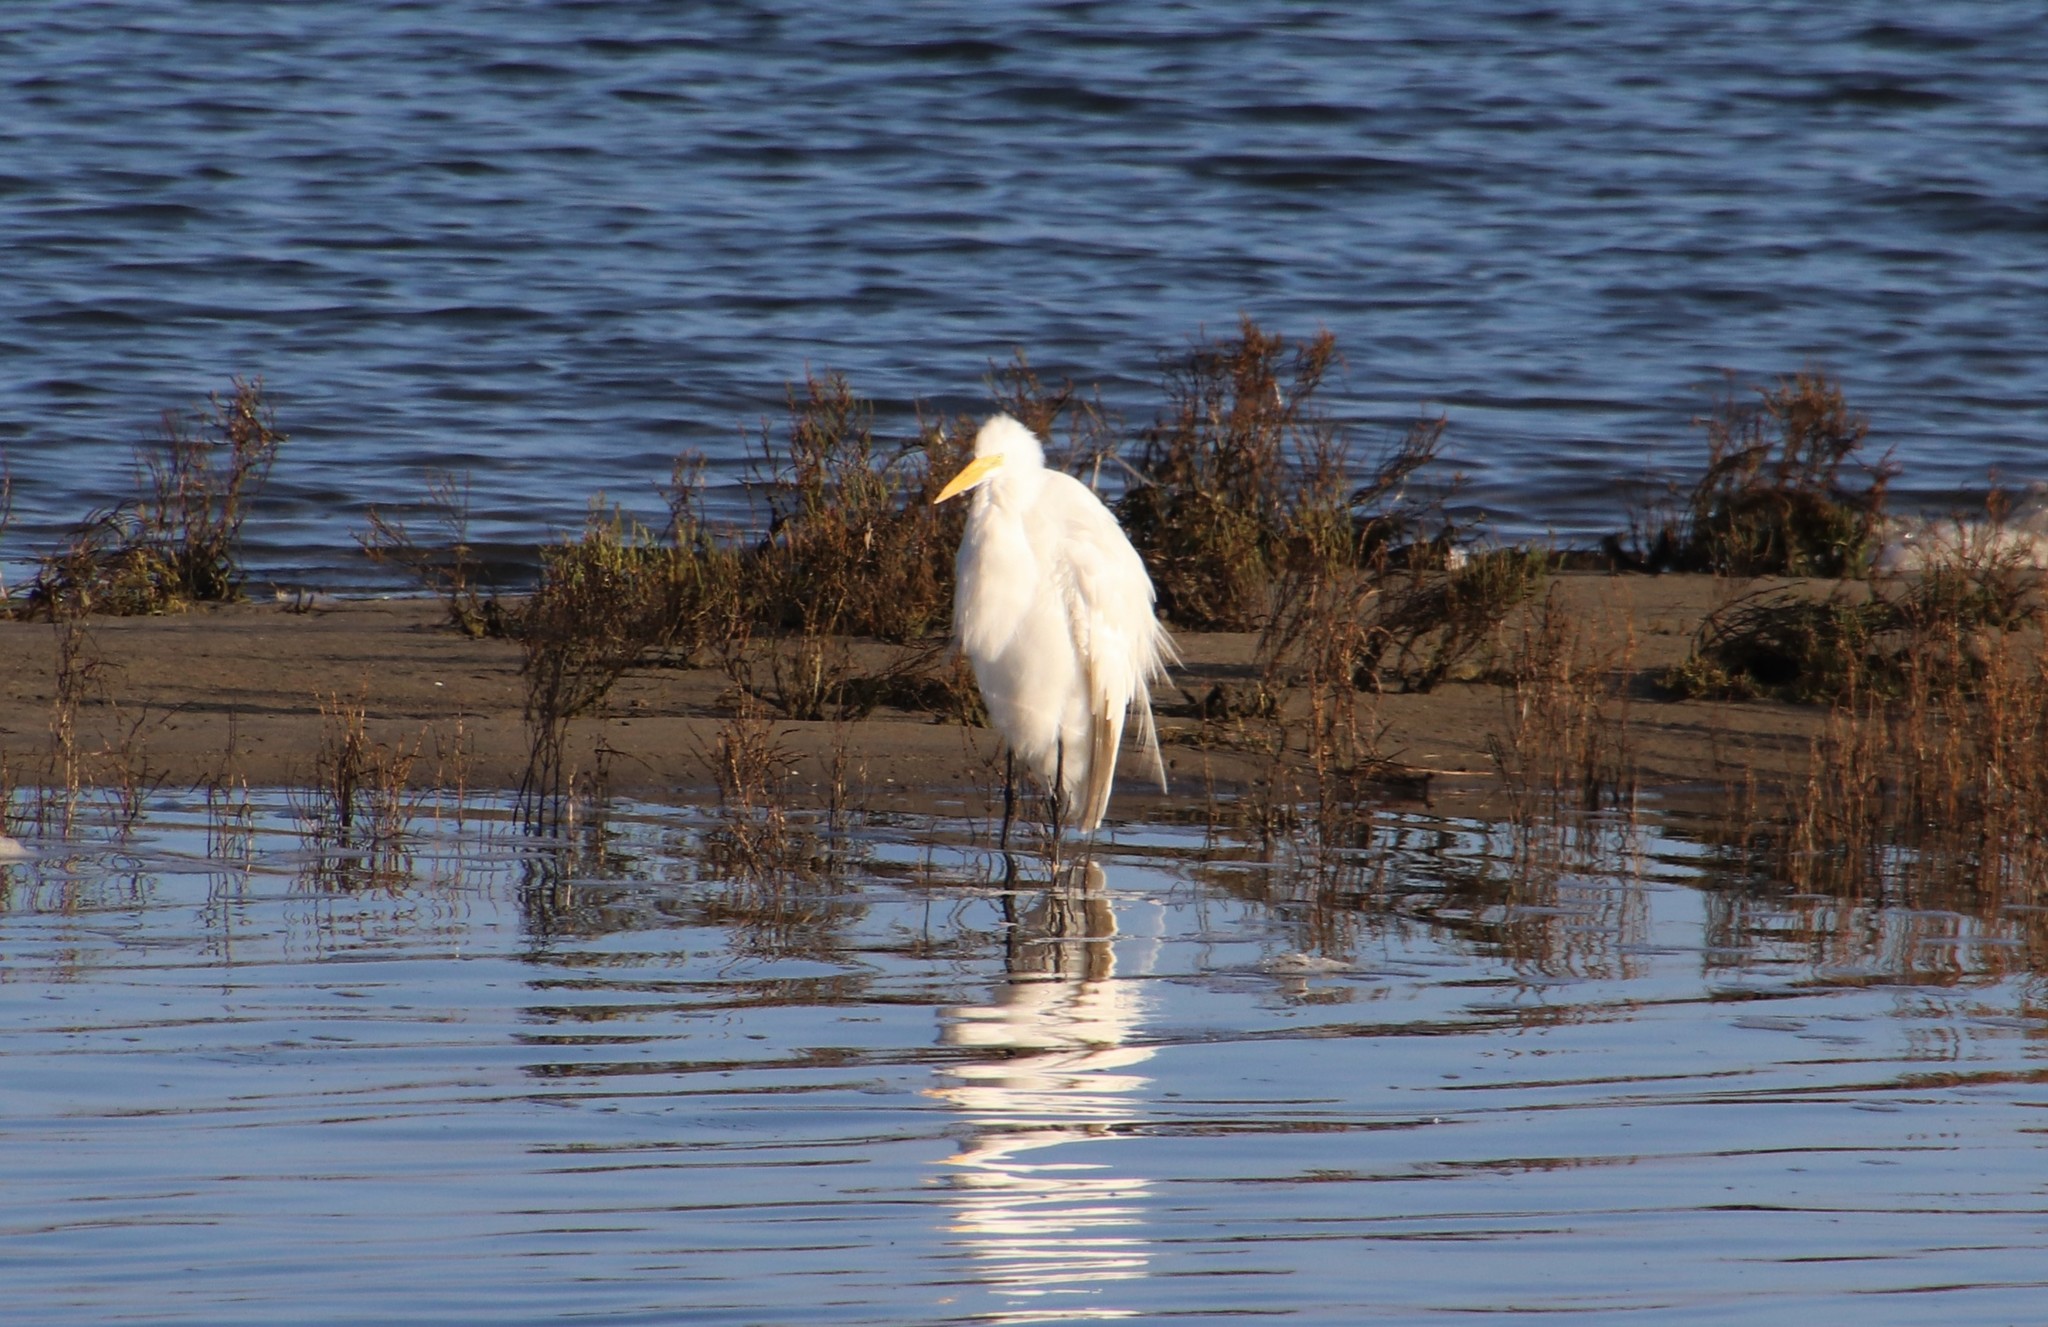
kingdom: Animalia
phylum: Chordata
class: Aves
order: Pelecaniformes
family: Ardeidae
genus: Ardea
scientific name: Ardea alba
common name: Great egret
